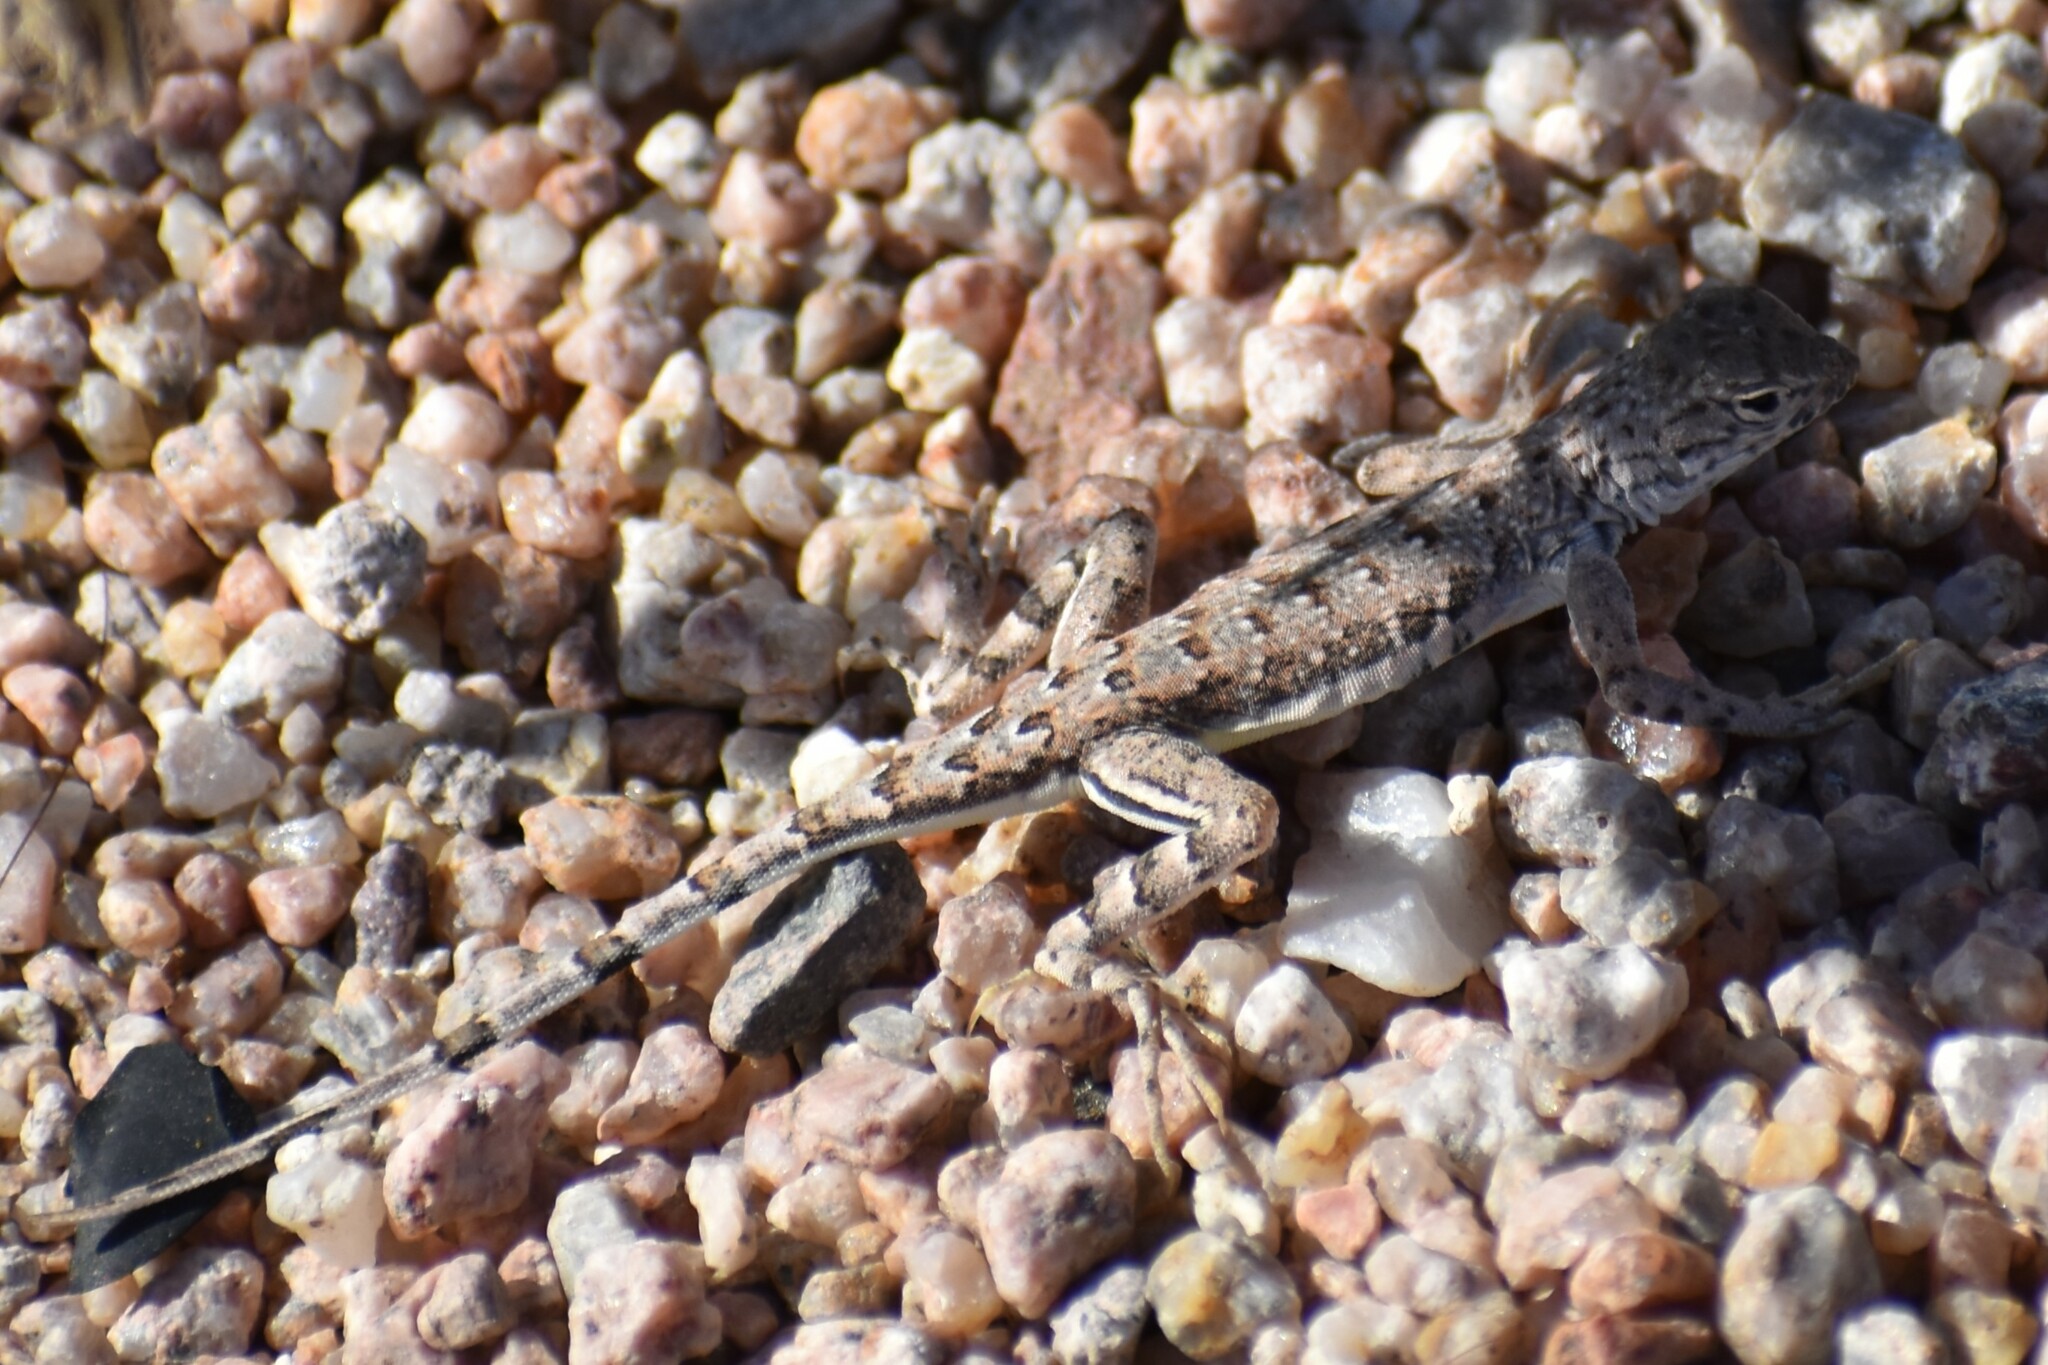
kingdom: Animalia
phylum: Chordata
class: Squamata
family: Phrynosomatidae
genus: Callisaurus
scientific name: Callisaurus draconoides
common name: Zebra-tailed lizard
